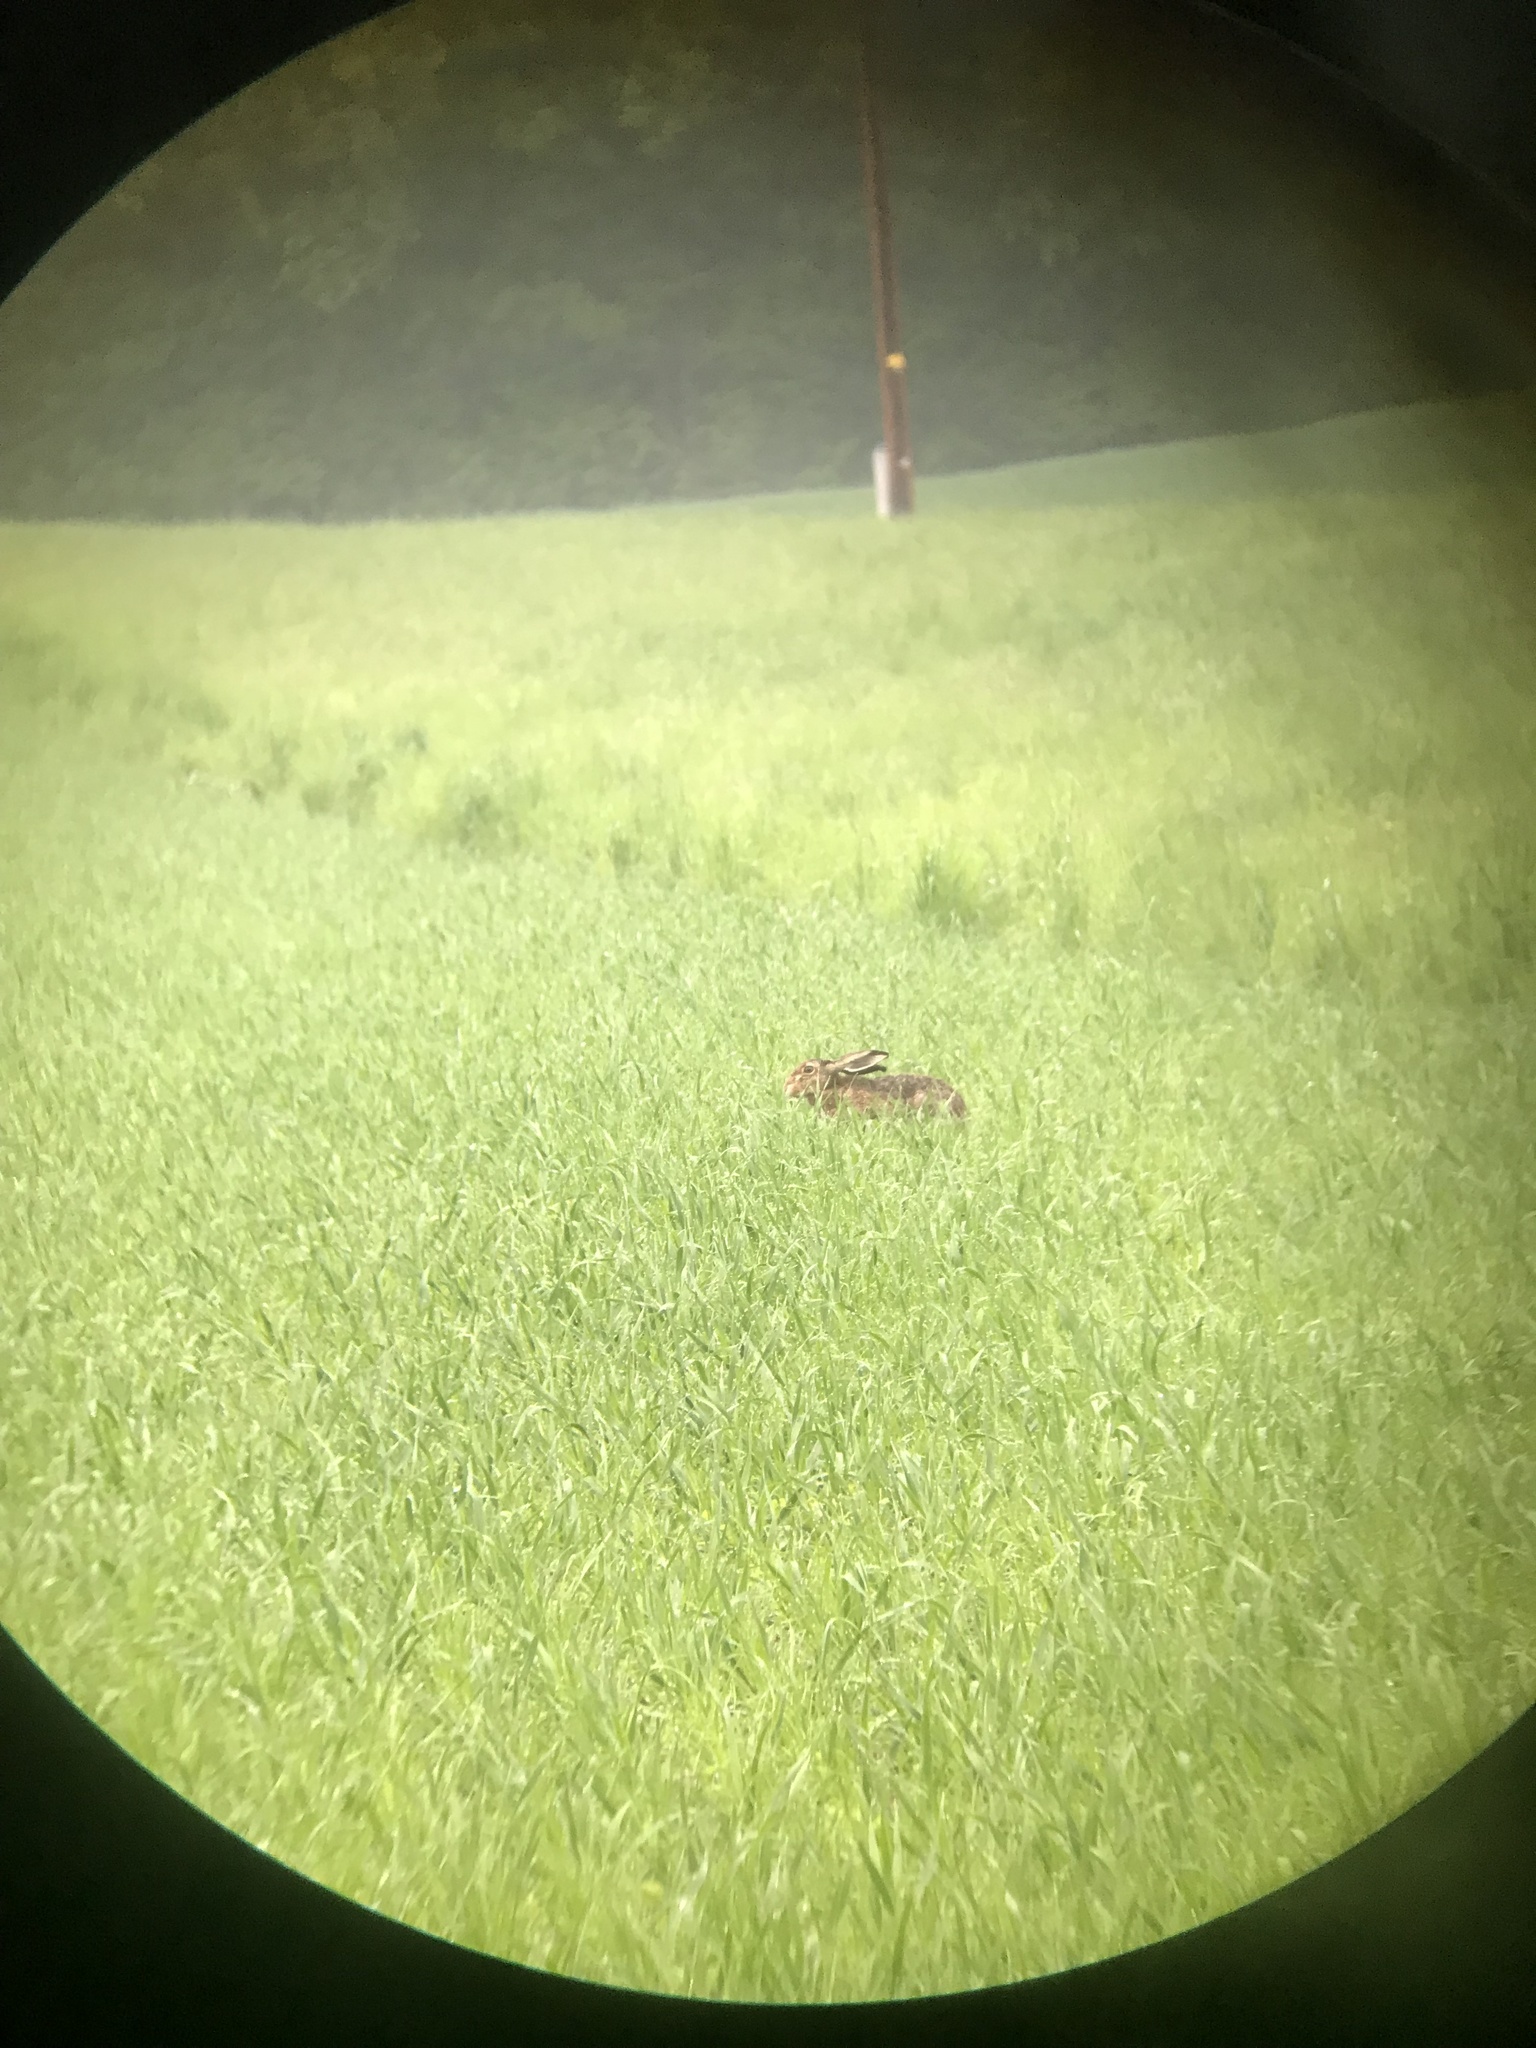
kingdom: Animalia
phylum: Chordata
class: Mammalia
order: Lagomorpha
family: Leporidae
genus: Lepus
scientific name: Lepus europaeus
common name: European hare
